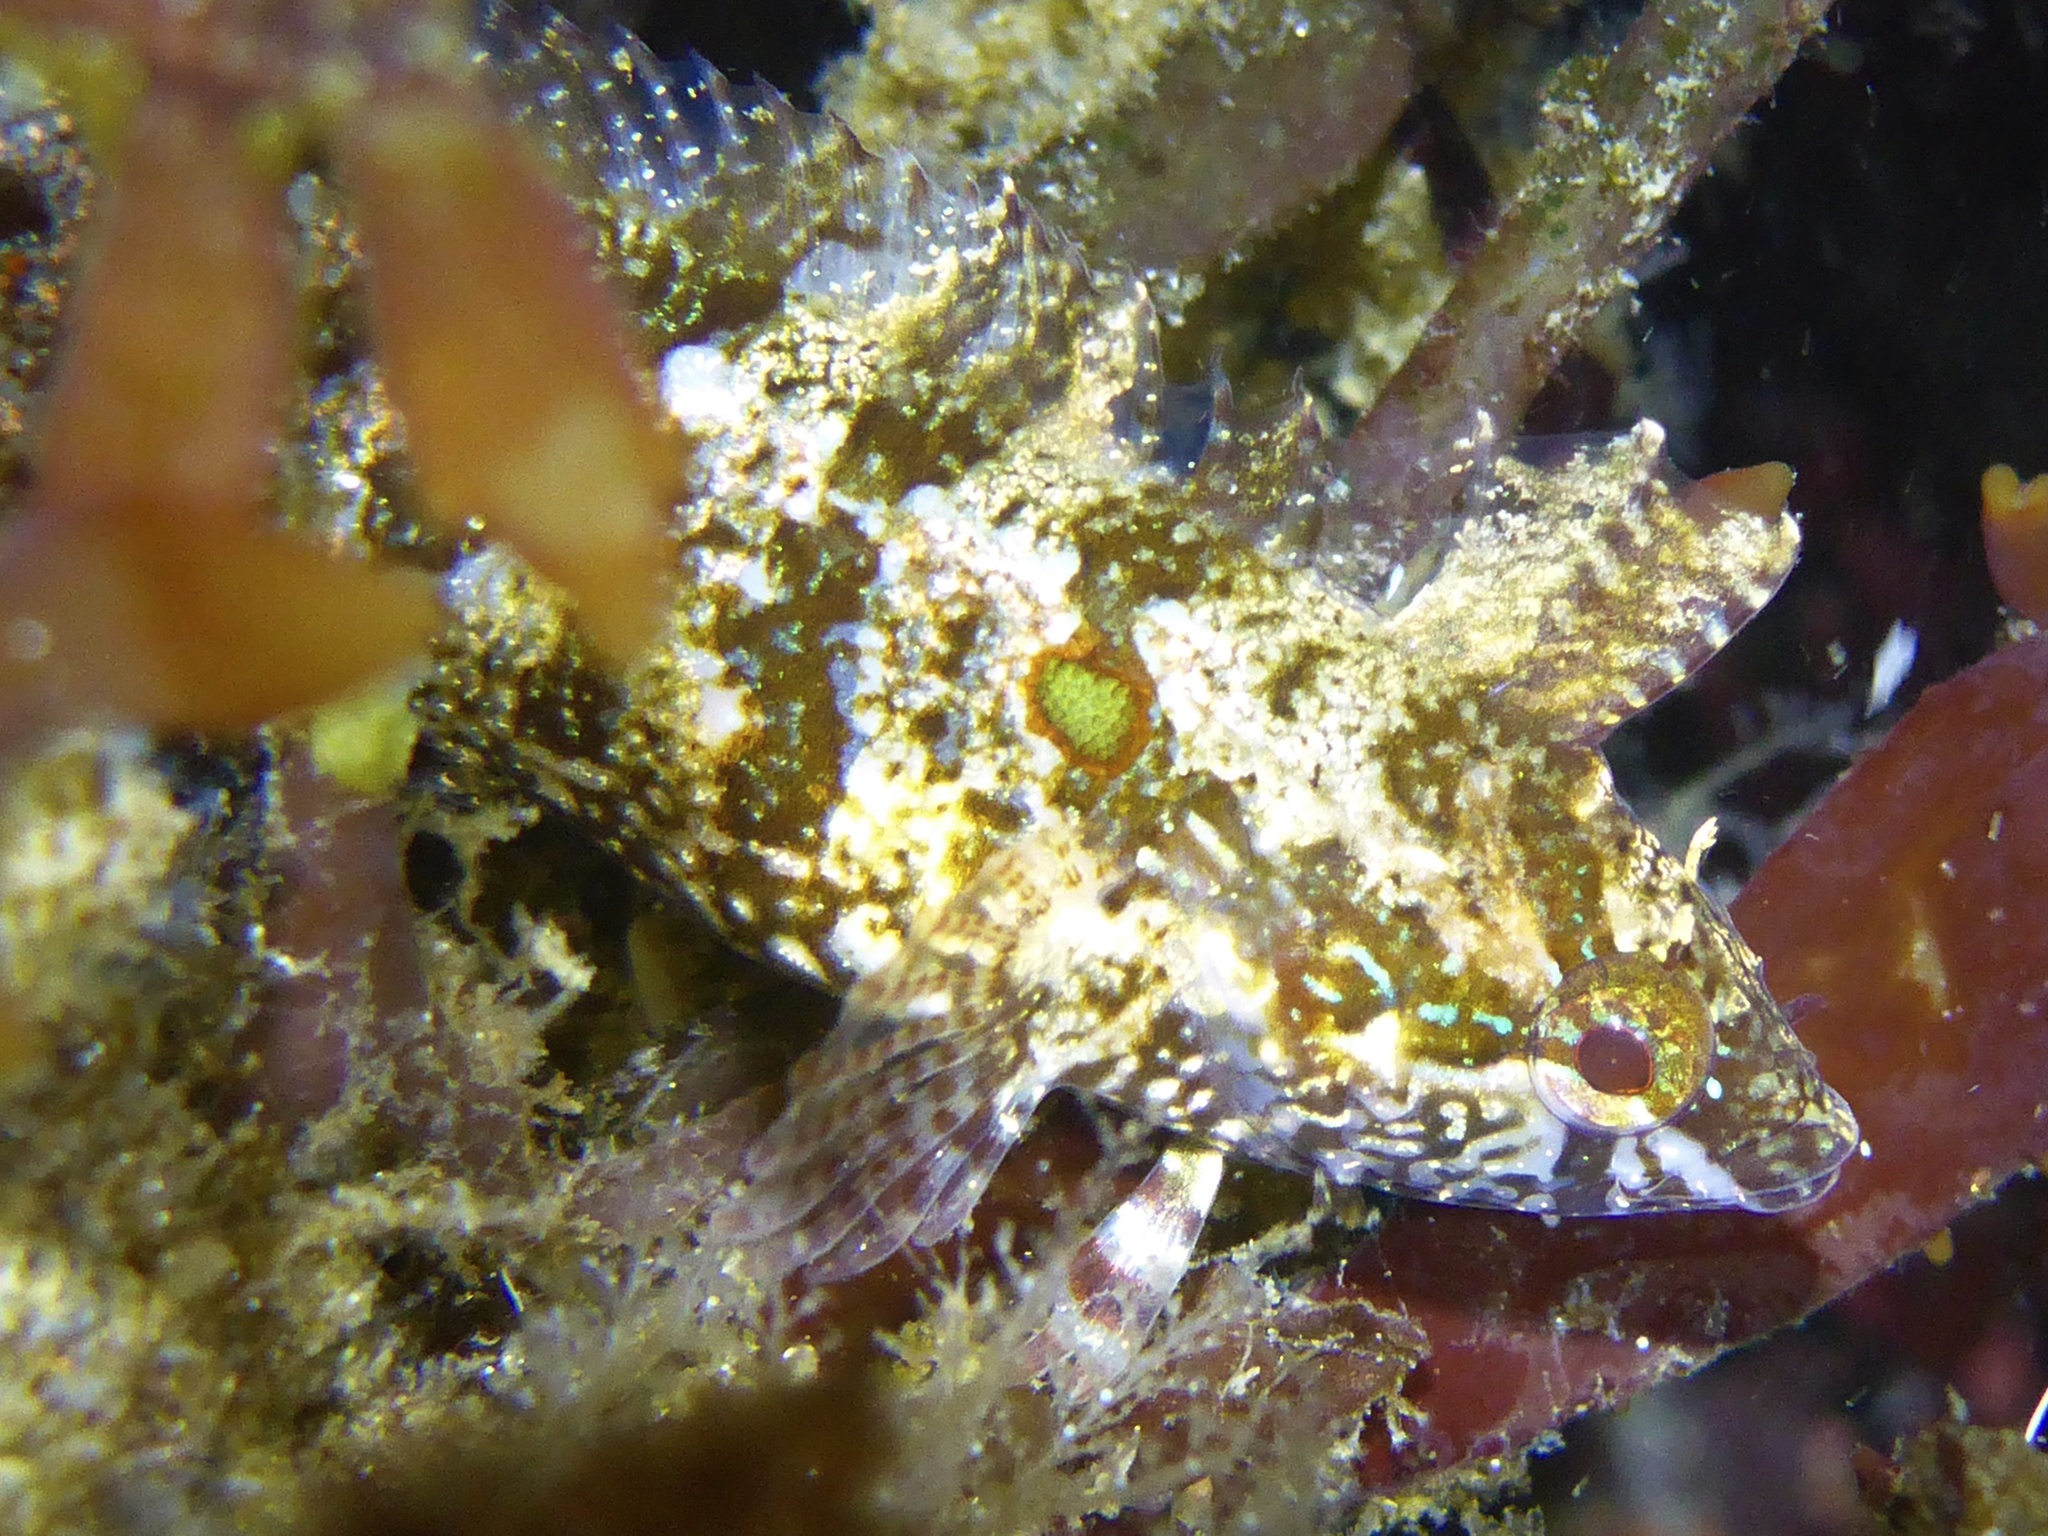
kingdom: Animalia
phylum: Chordata
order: Perciformes
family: Clinidae
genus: Gibbonsia
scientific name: Gibbonsia elegans
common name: Spotted kelpfish
